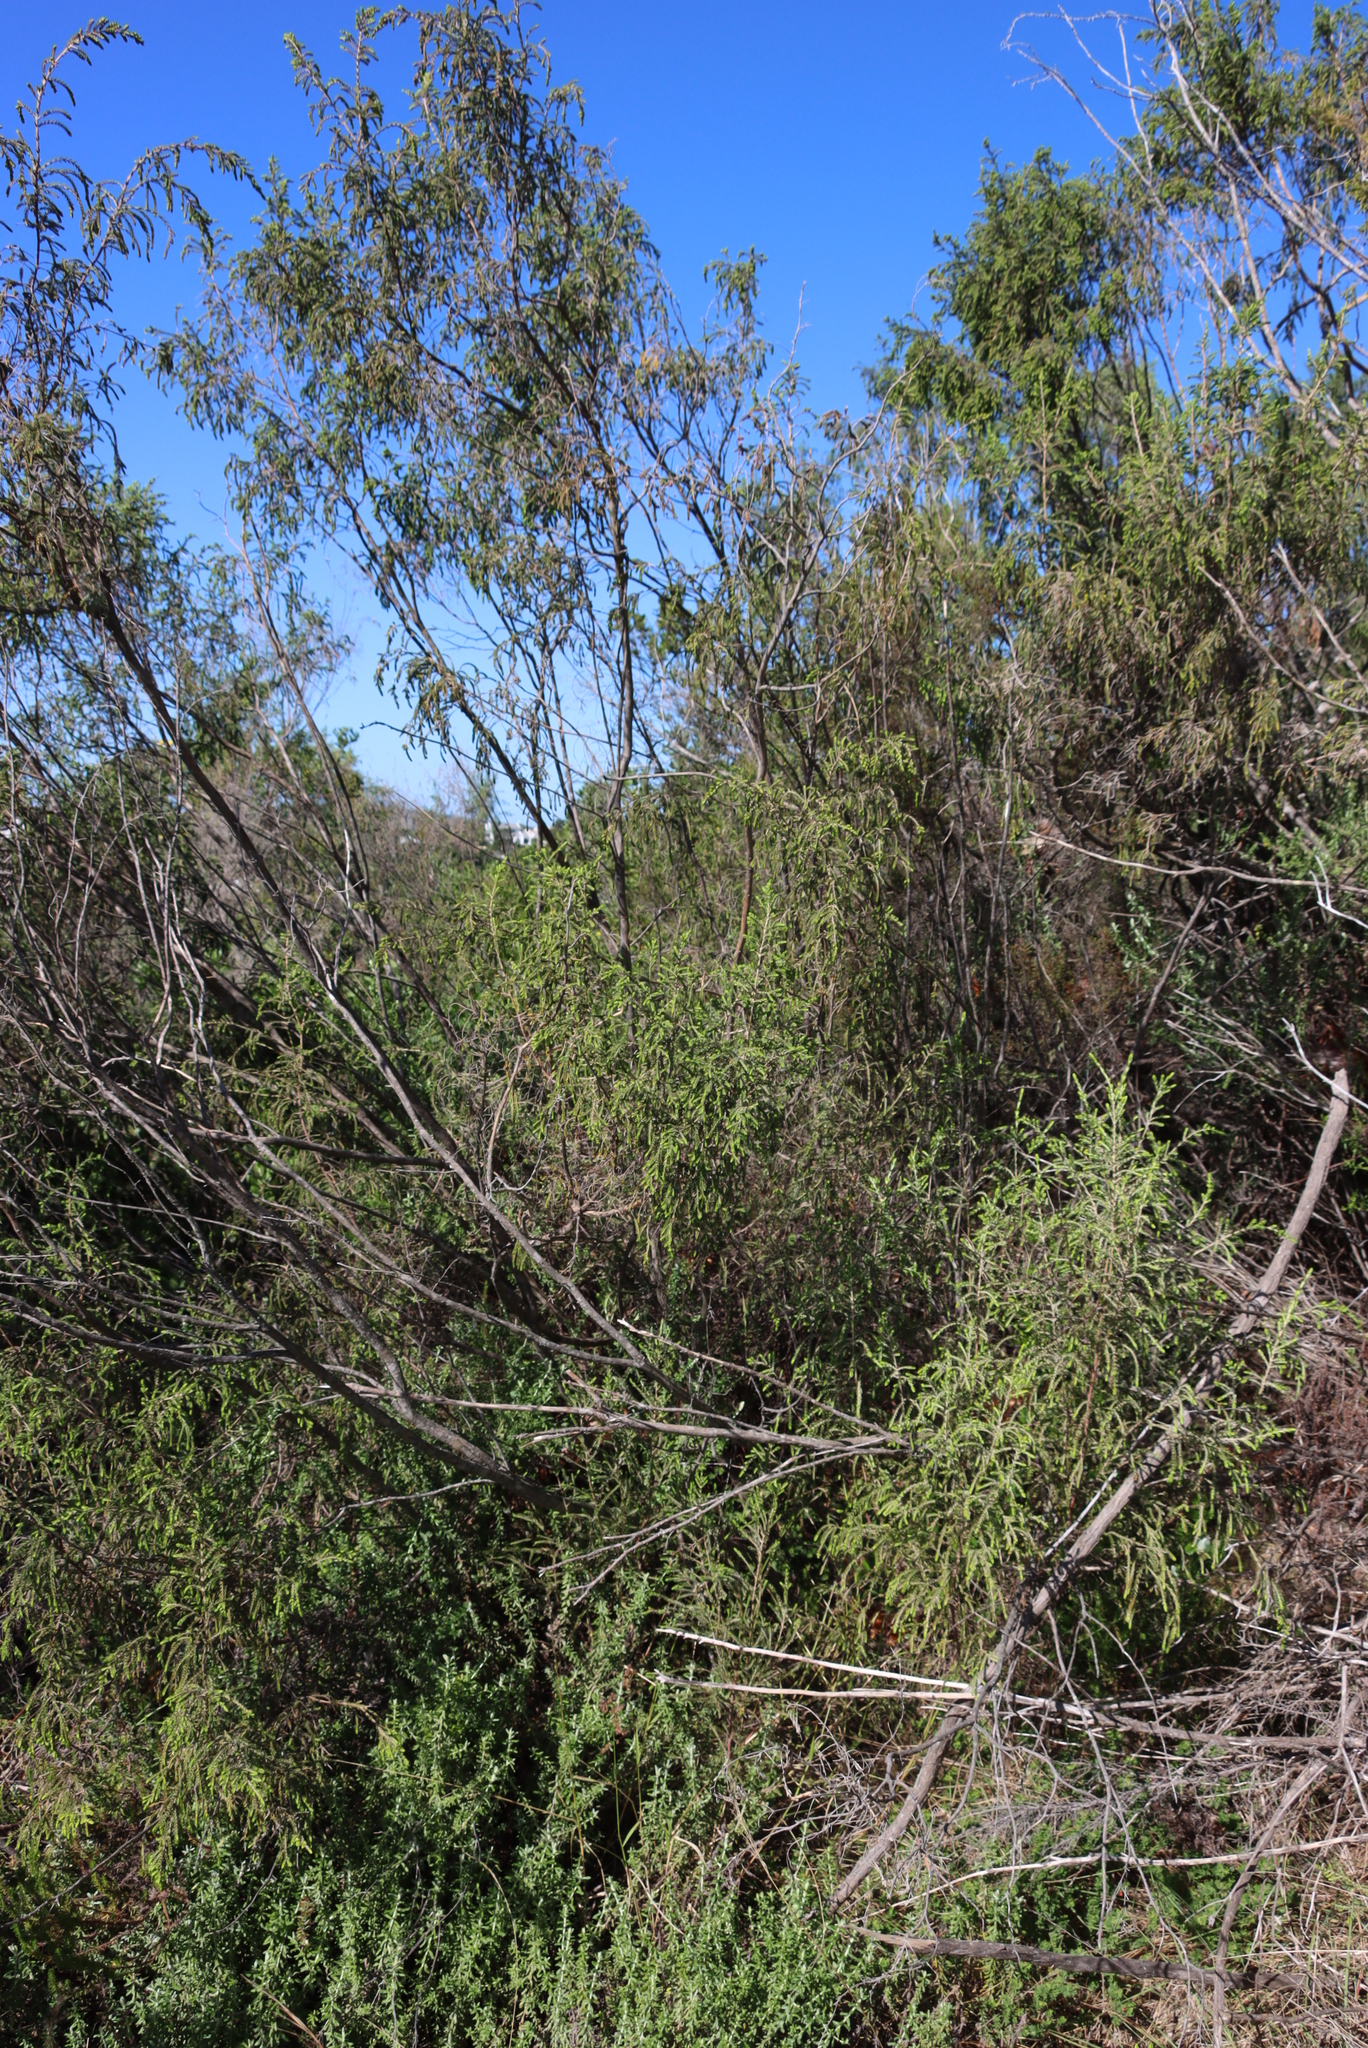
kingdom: Plantae
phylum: Tracheophyta
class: Magnoliopsida
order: Malvales
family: Thymelaeaceae
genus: Passerina
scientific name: Passerina falcifolia
